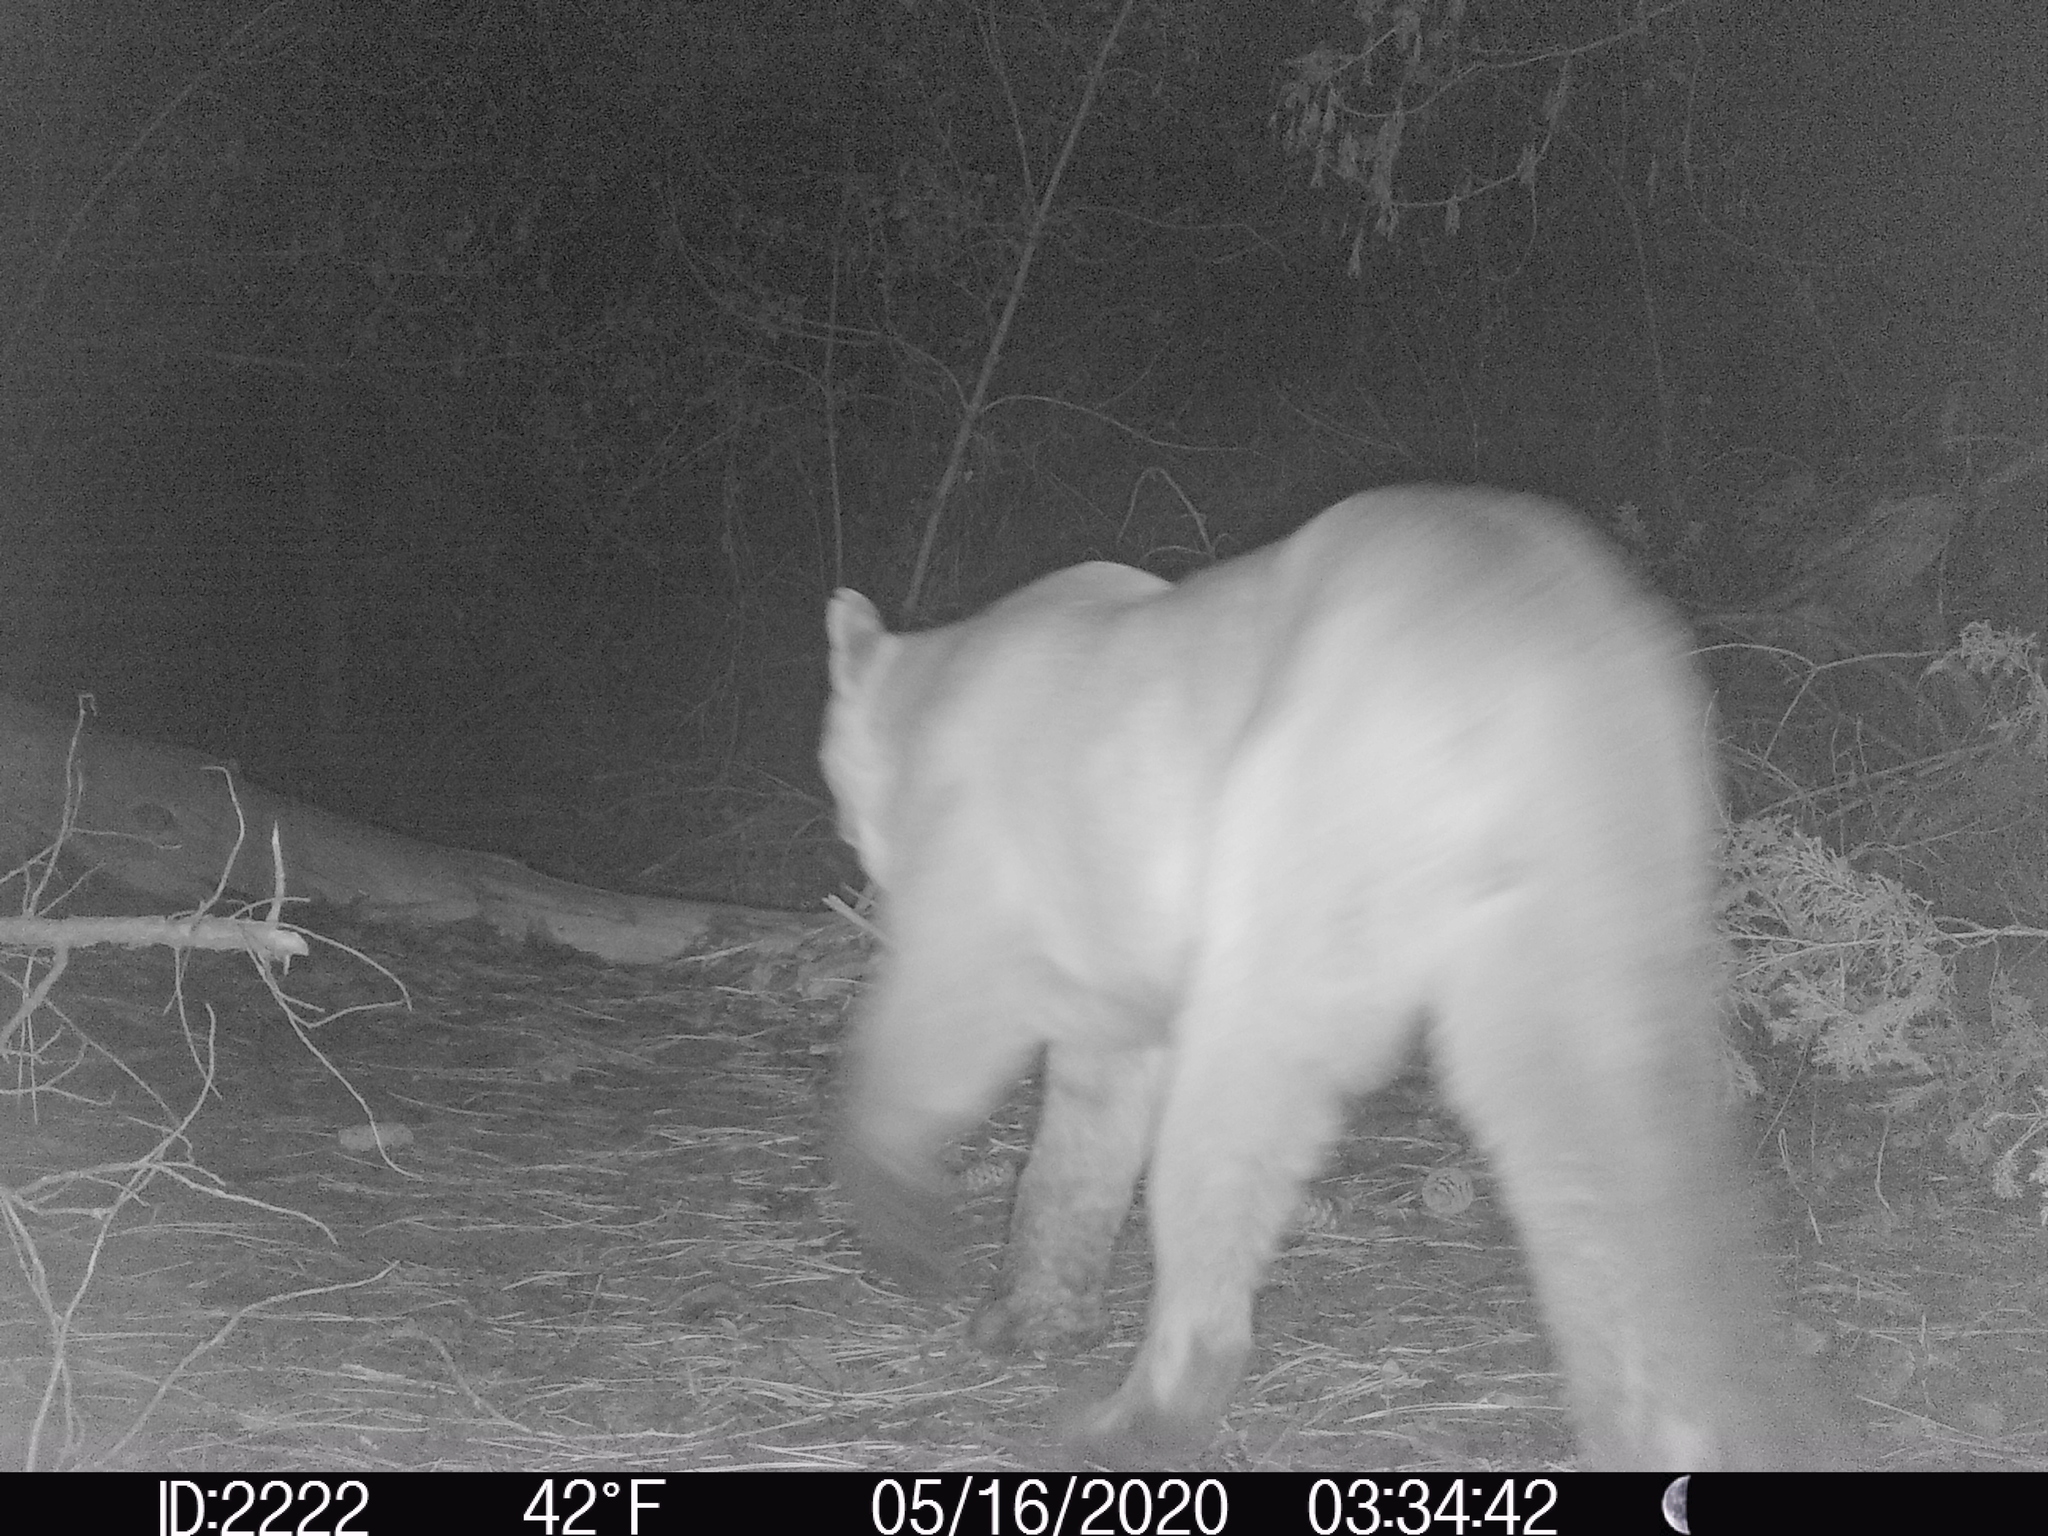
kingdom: Animalia
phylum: Chordata
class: Mammalia
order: Carnivora
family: Felidae
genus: Puma
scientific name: Puma concolor
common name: Puma
